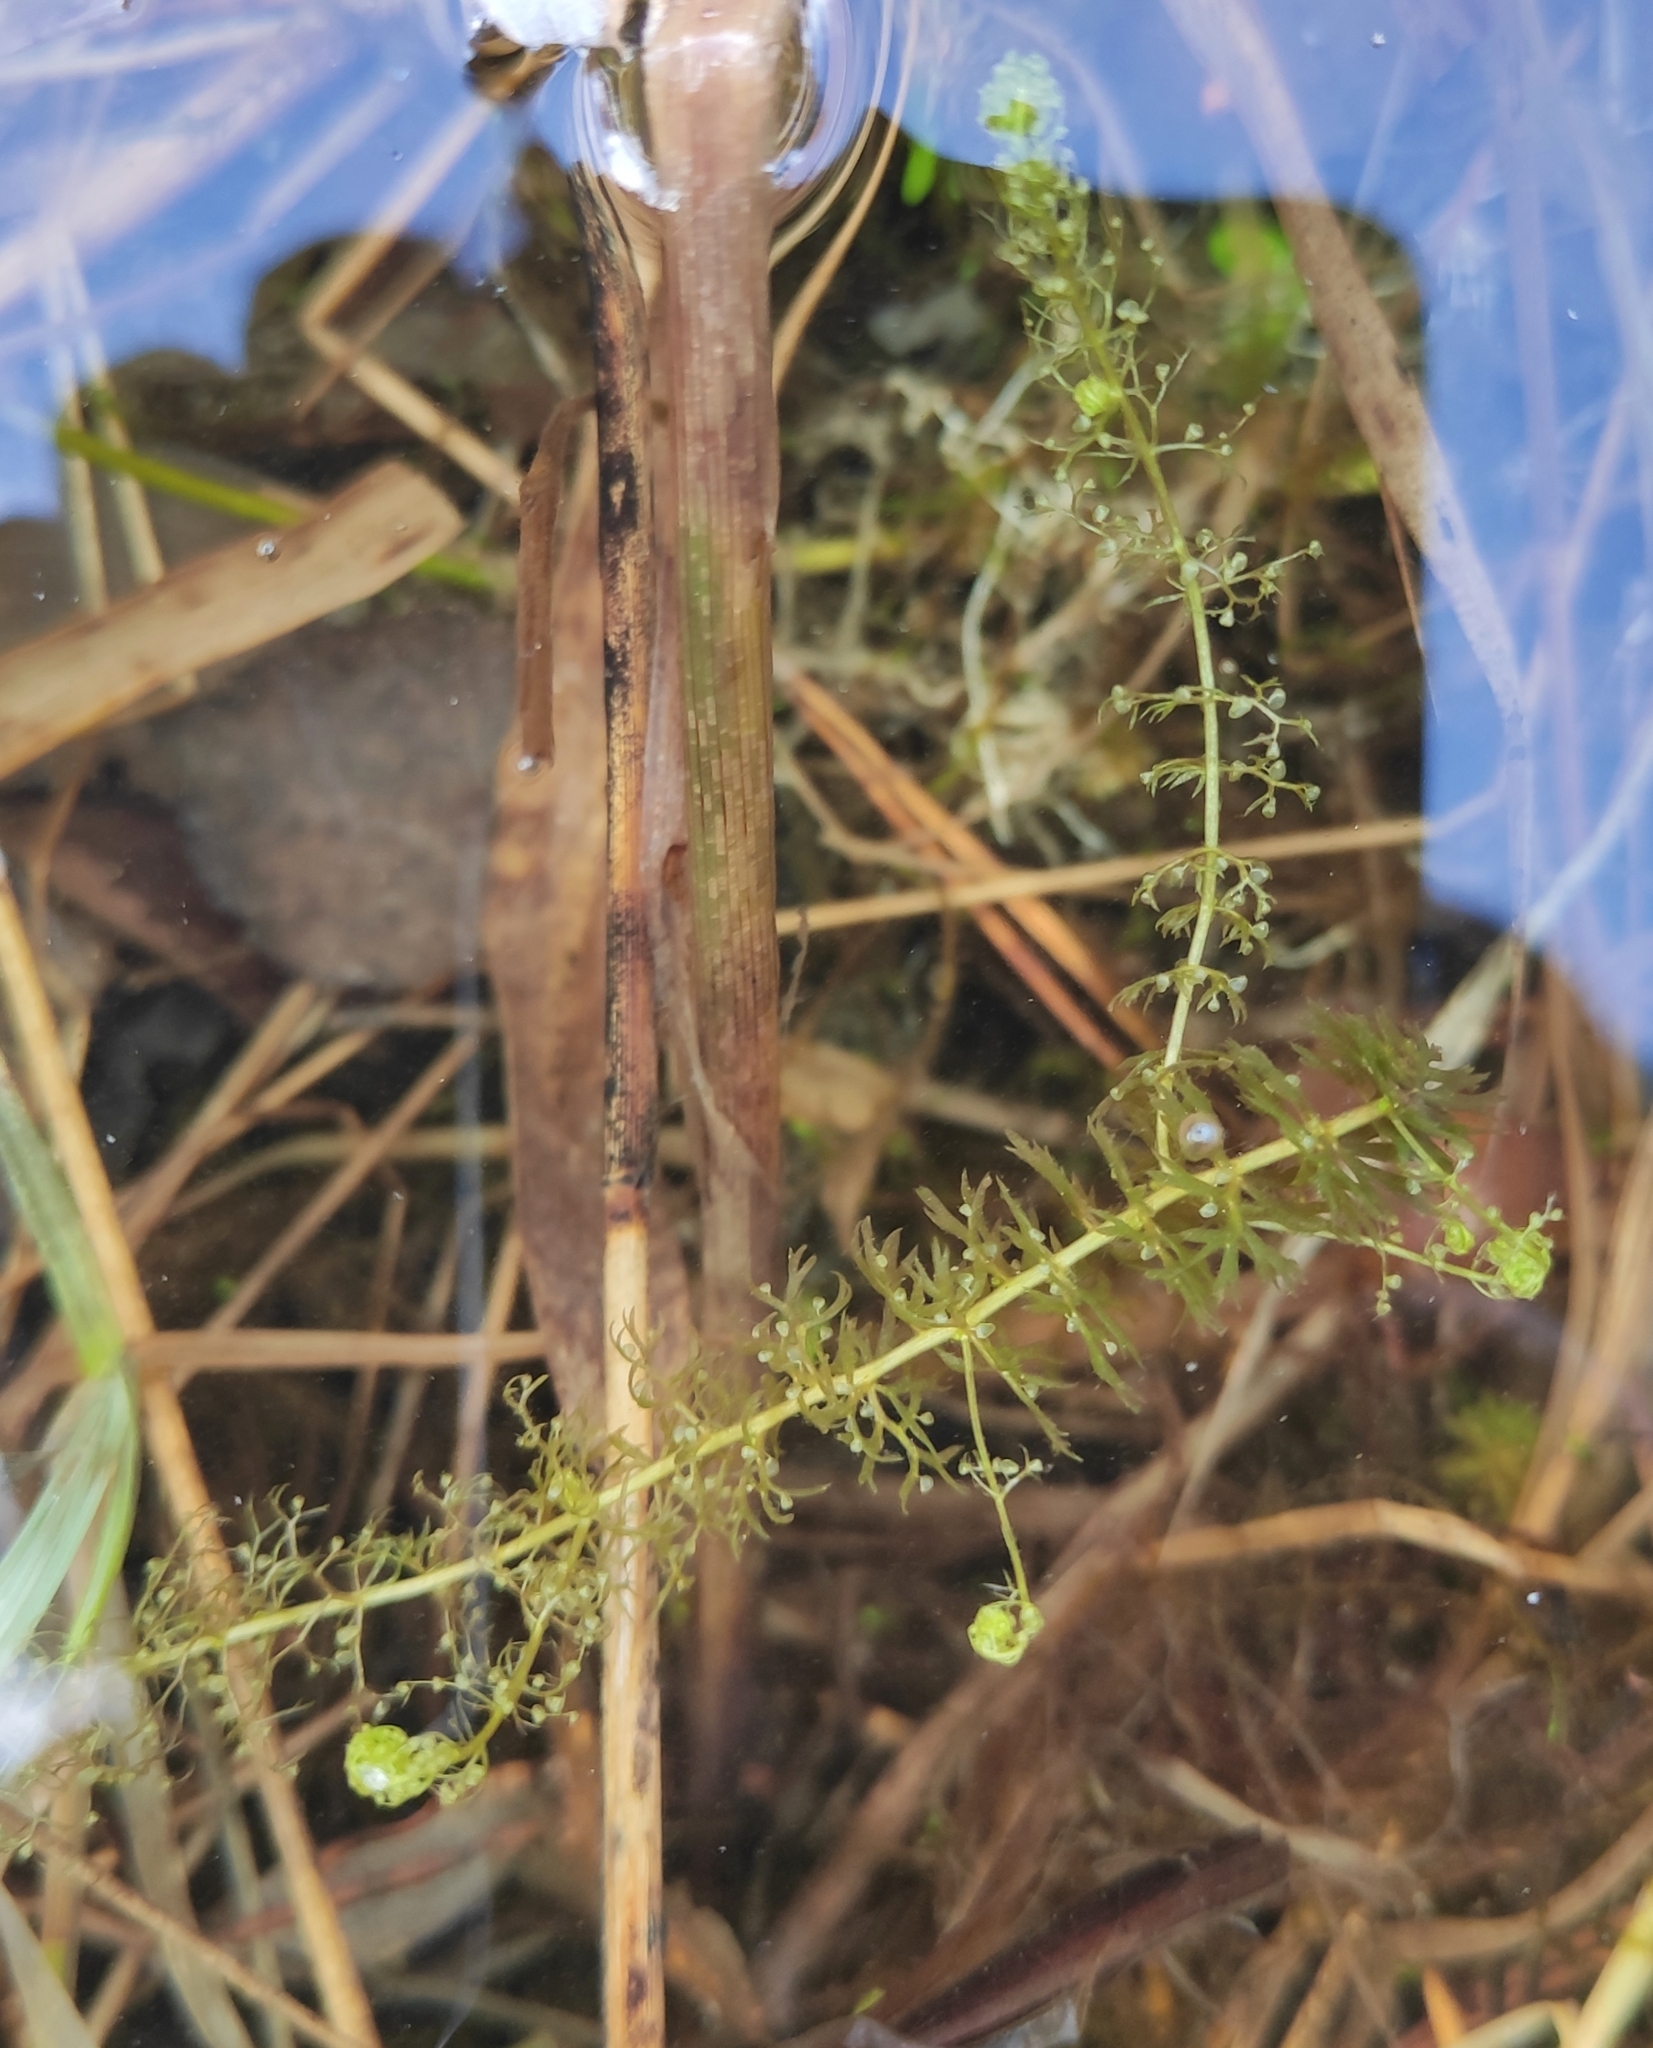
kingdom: Plantae
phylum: Tracheophyta
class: Magnoliopsida
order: Lamiales
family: Lentibulariaceae
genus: Utricularia
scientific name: Utricularia minor
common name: Lesser bladderwort
